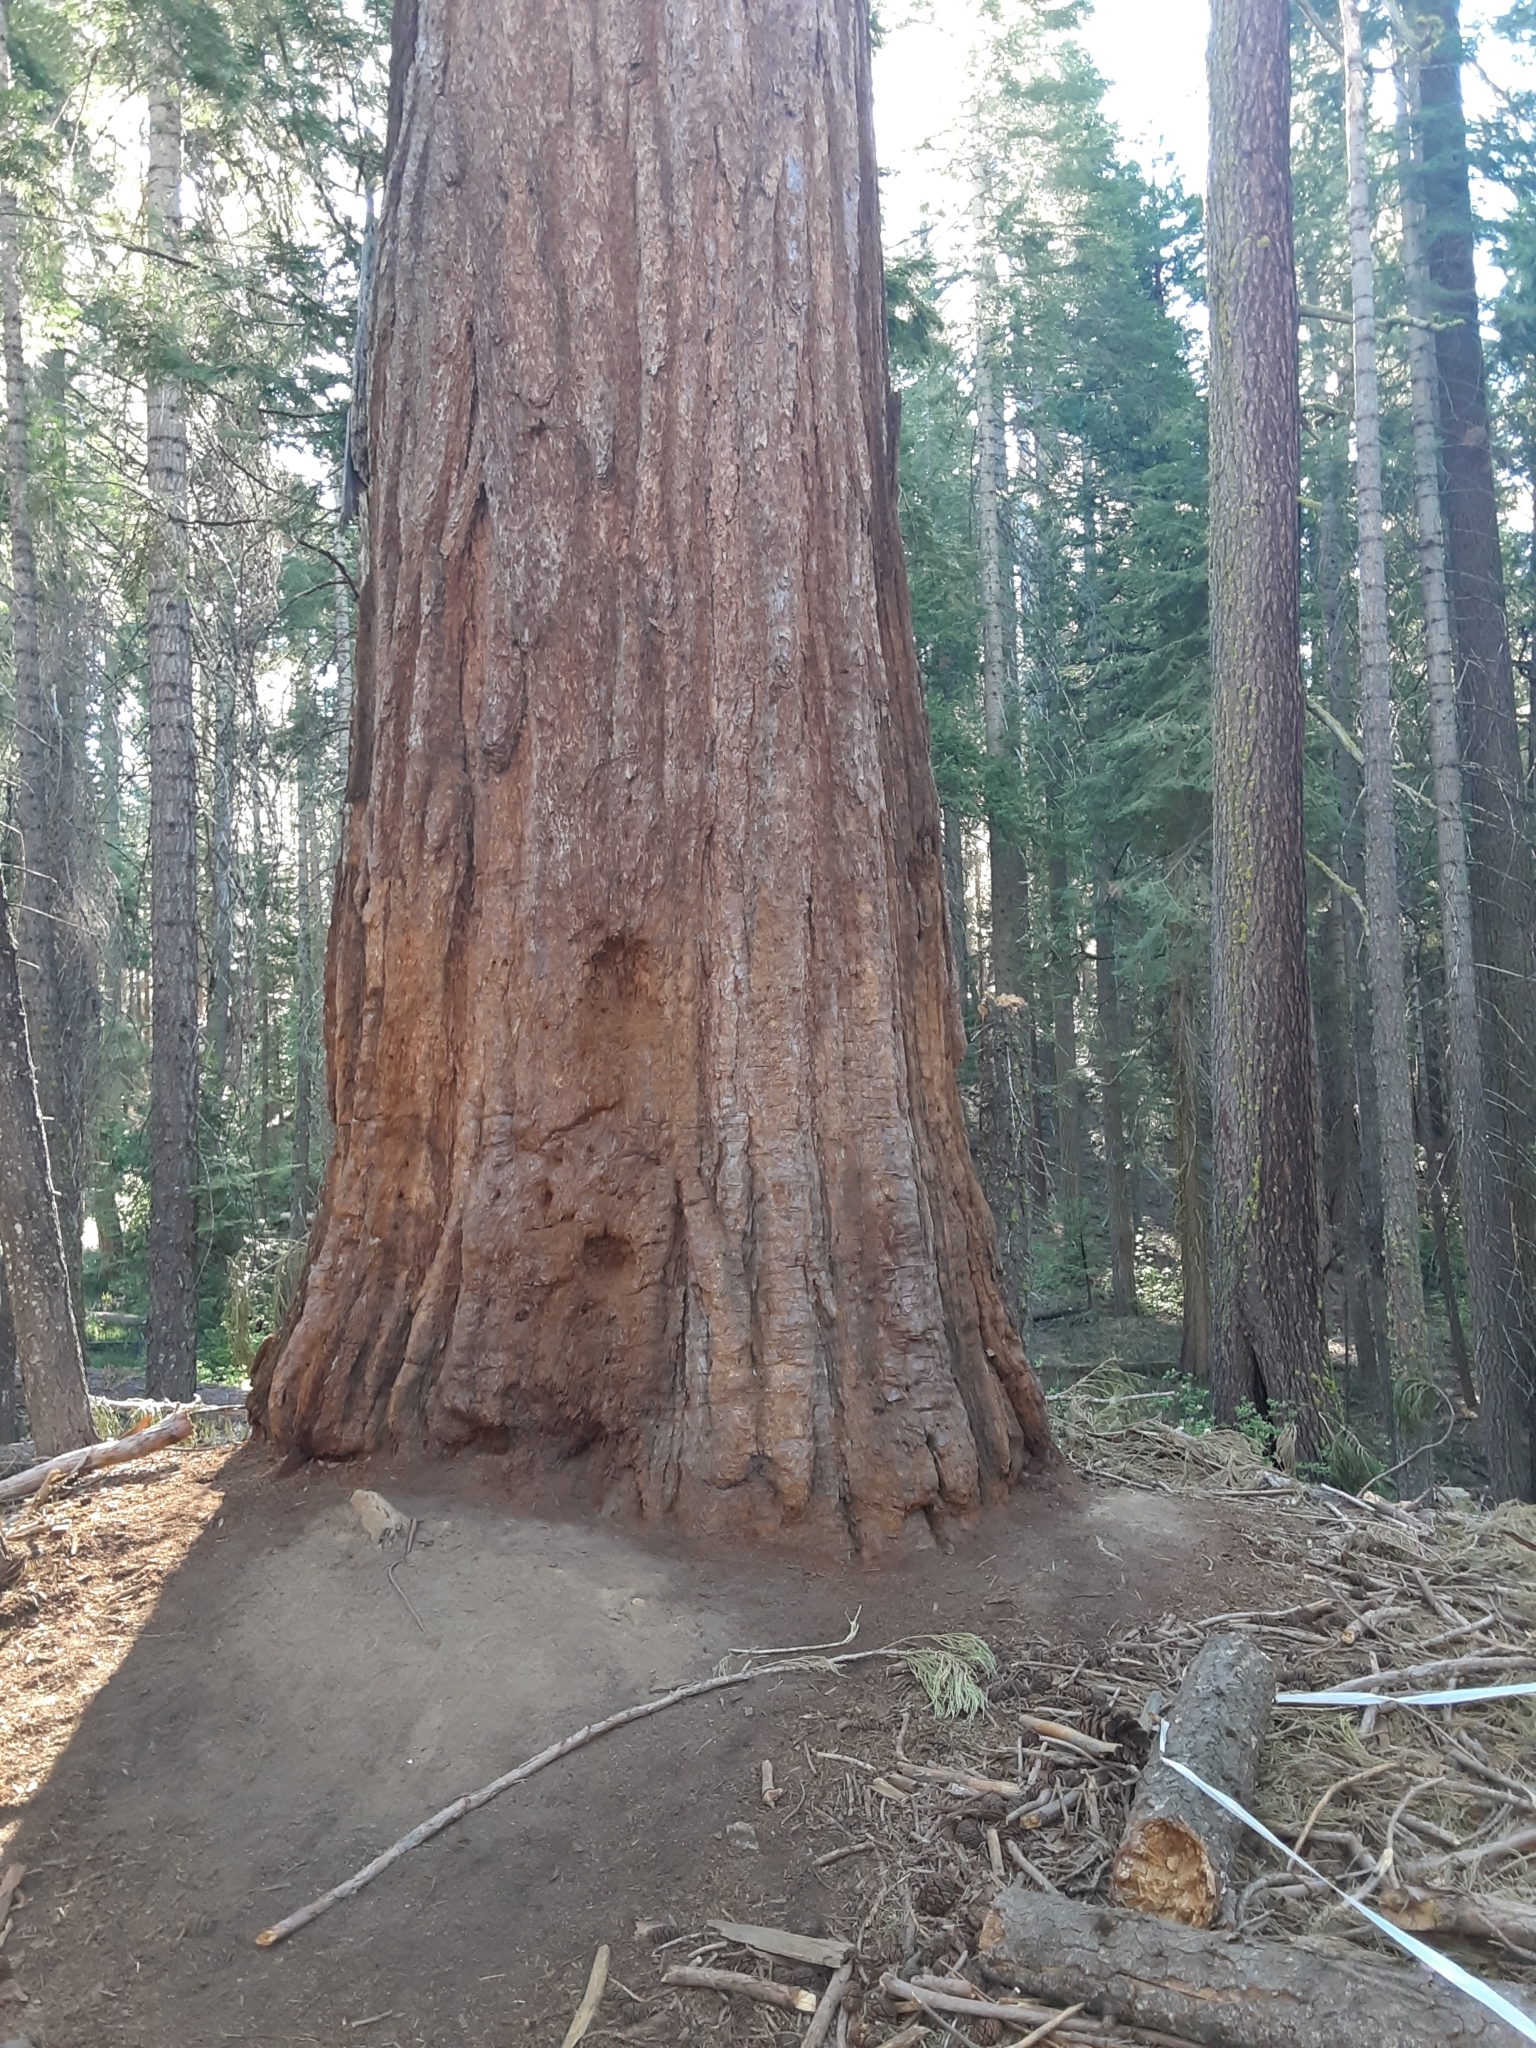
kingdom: Plantae
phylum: Tracheophyta
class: Pinopsida
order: Pinales
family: Cupressaceae
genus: Sequoiadendron
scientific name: Sequoiadendron giganteum
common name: Wellingtonia
